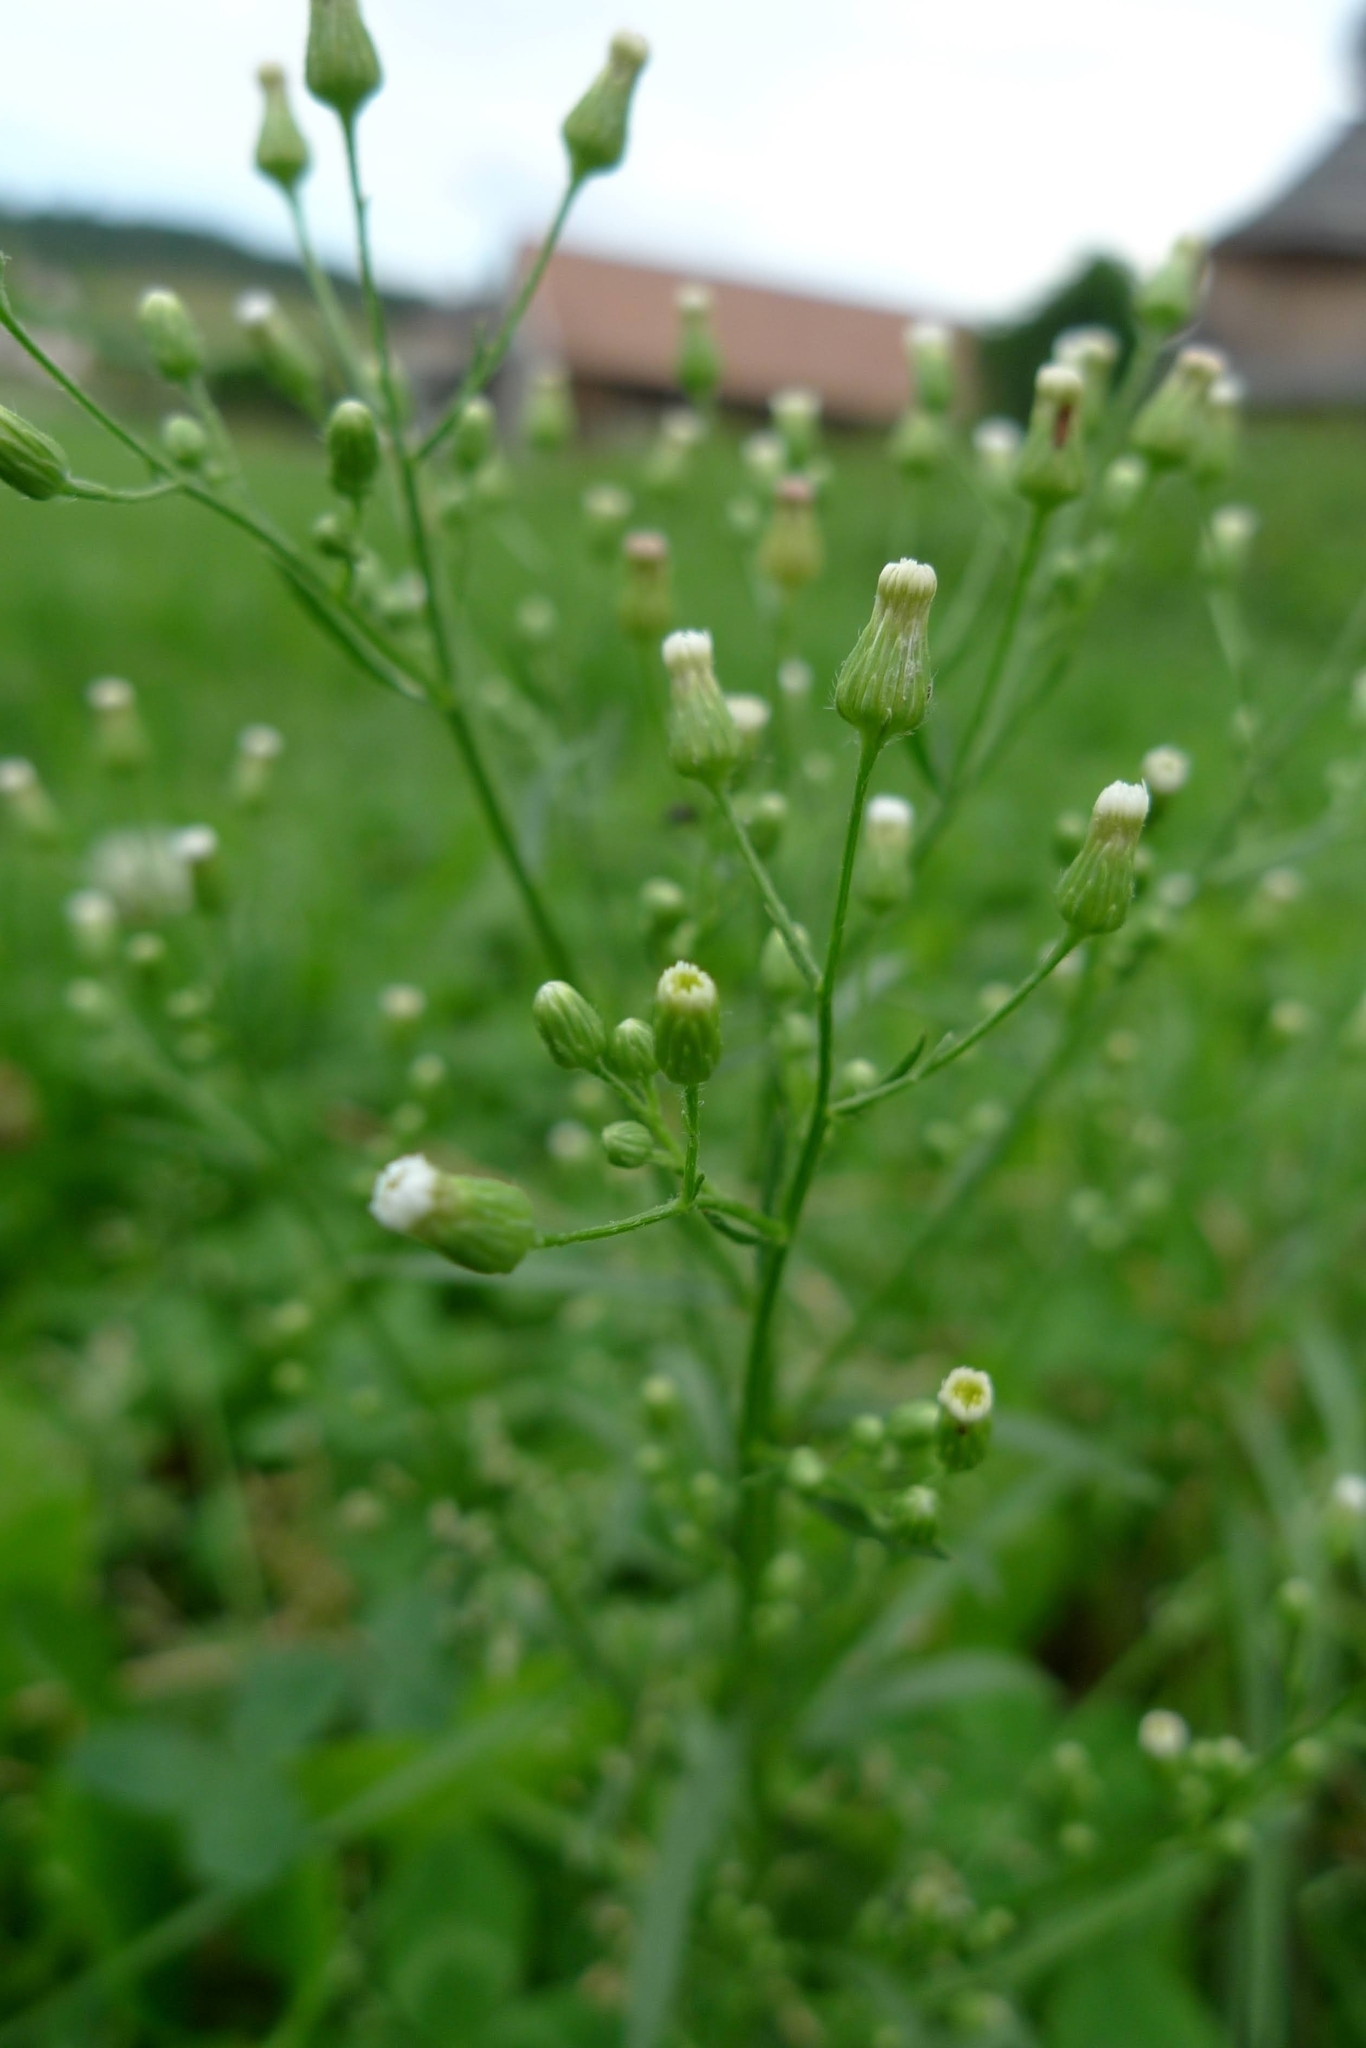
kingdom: Plantae
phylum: Tracheophyta
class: Magnoliopsida
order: Asterales
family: Asteraceae
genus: Erigeron
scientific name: Erigeron canadensis
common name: Canadian fleabane
